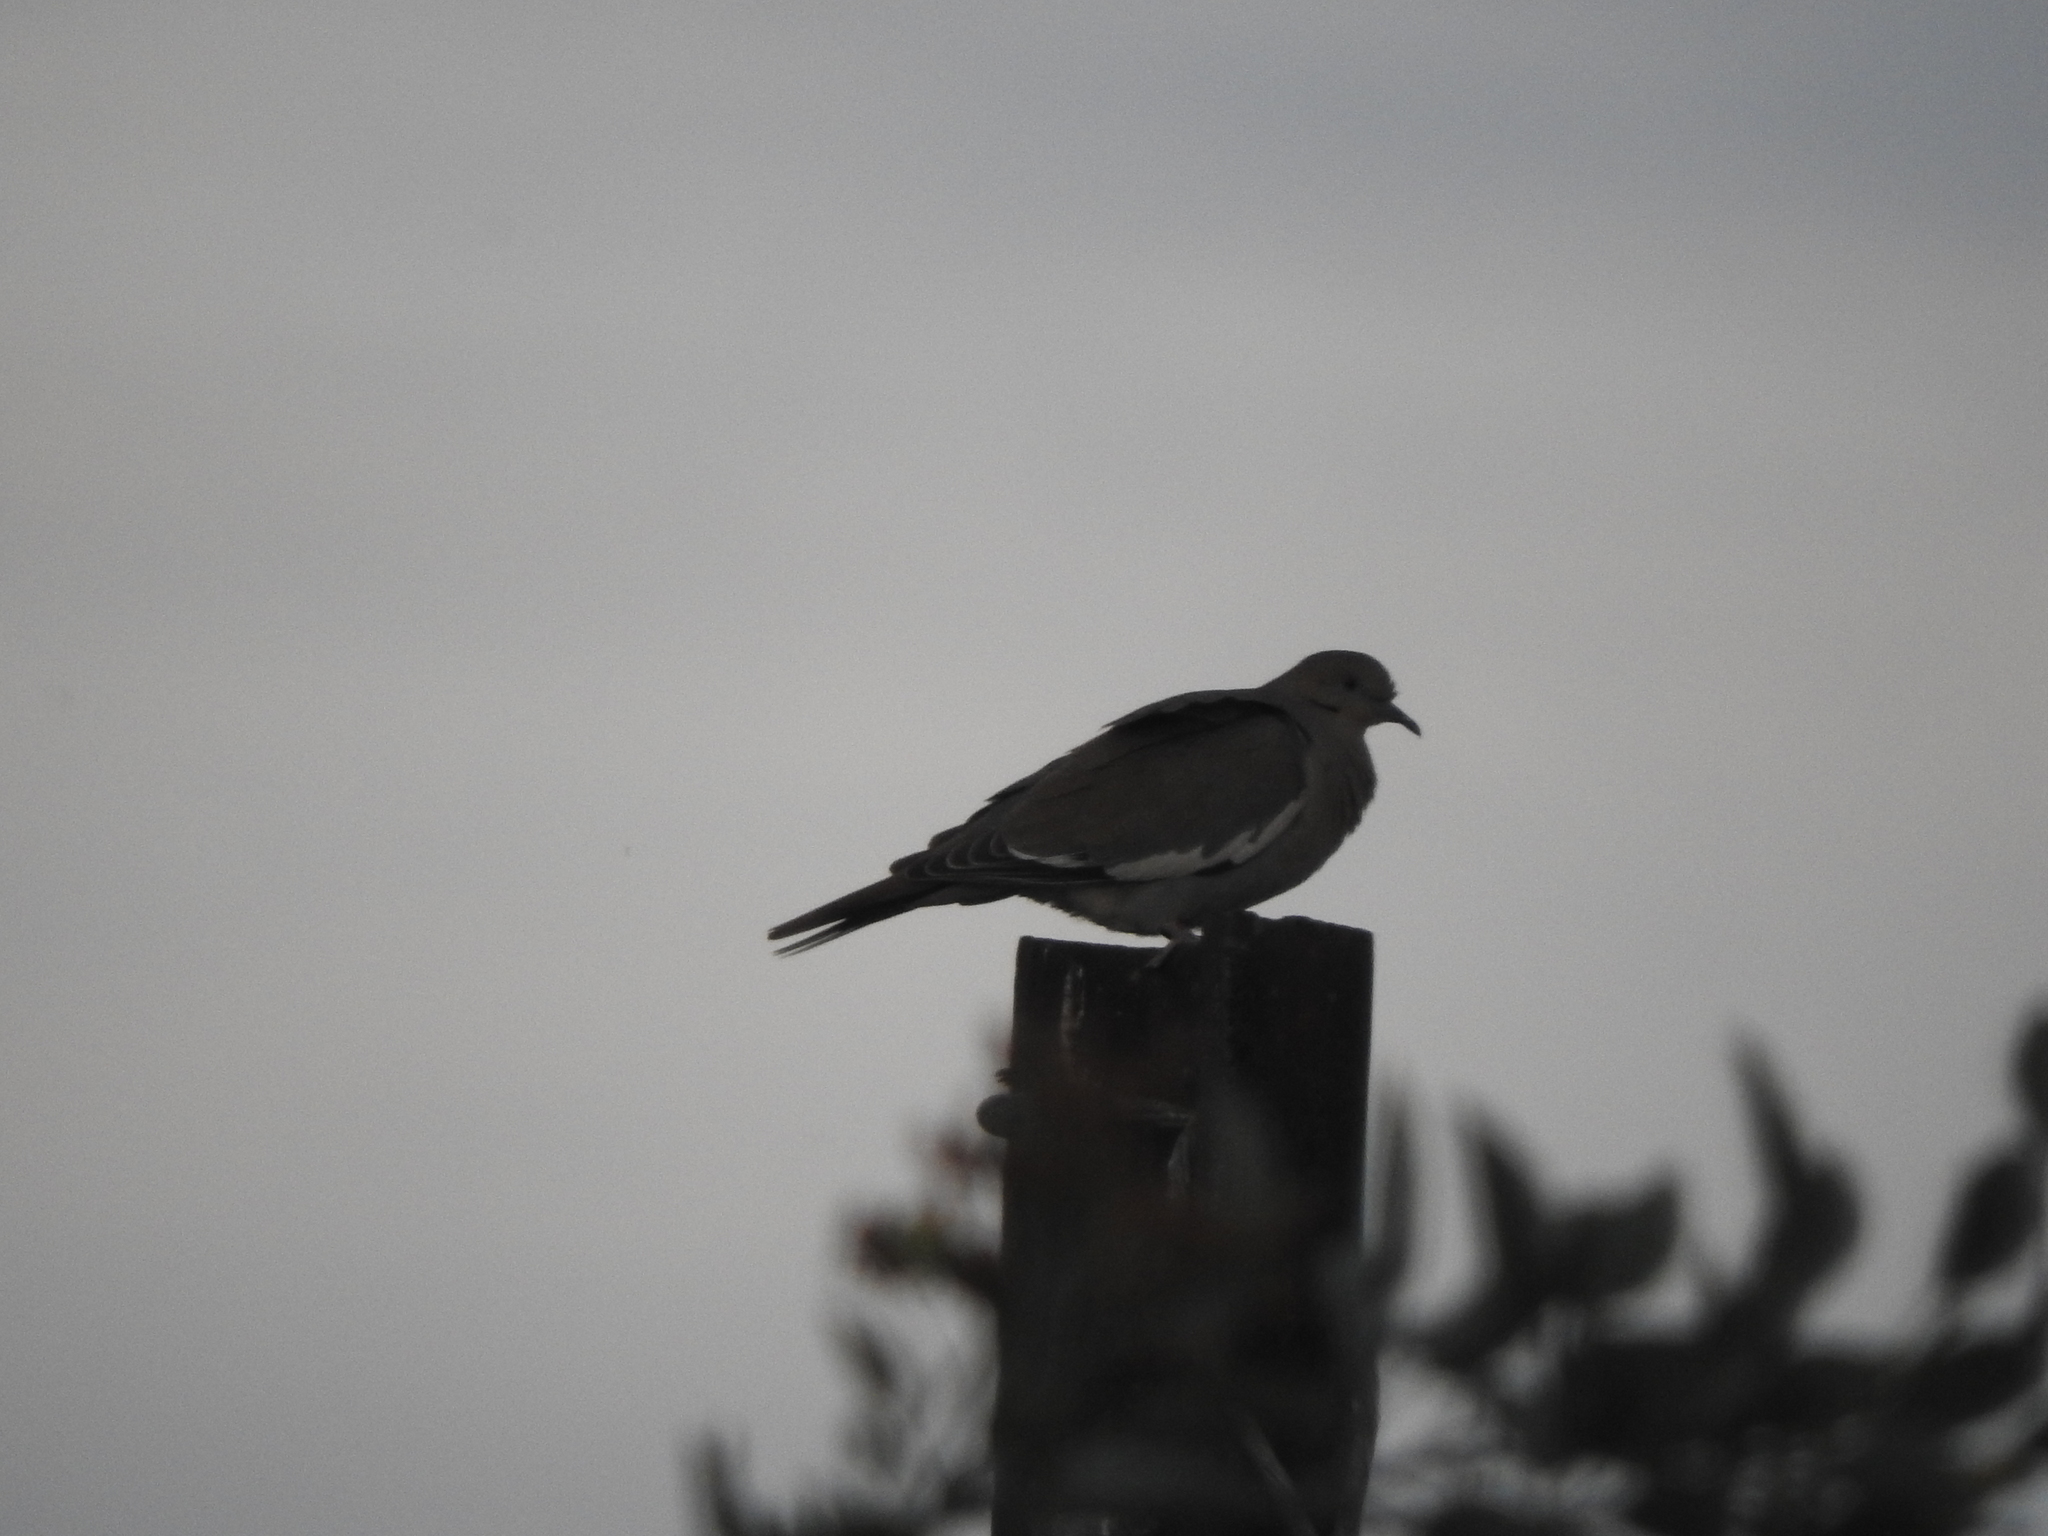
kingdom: Animalia
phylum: Chordata
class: Aves
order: Columbiformes
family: Columbidae
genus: Zenaida
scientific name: Zenaida asiatica
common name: White-winged dove
